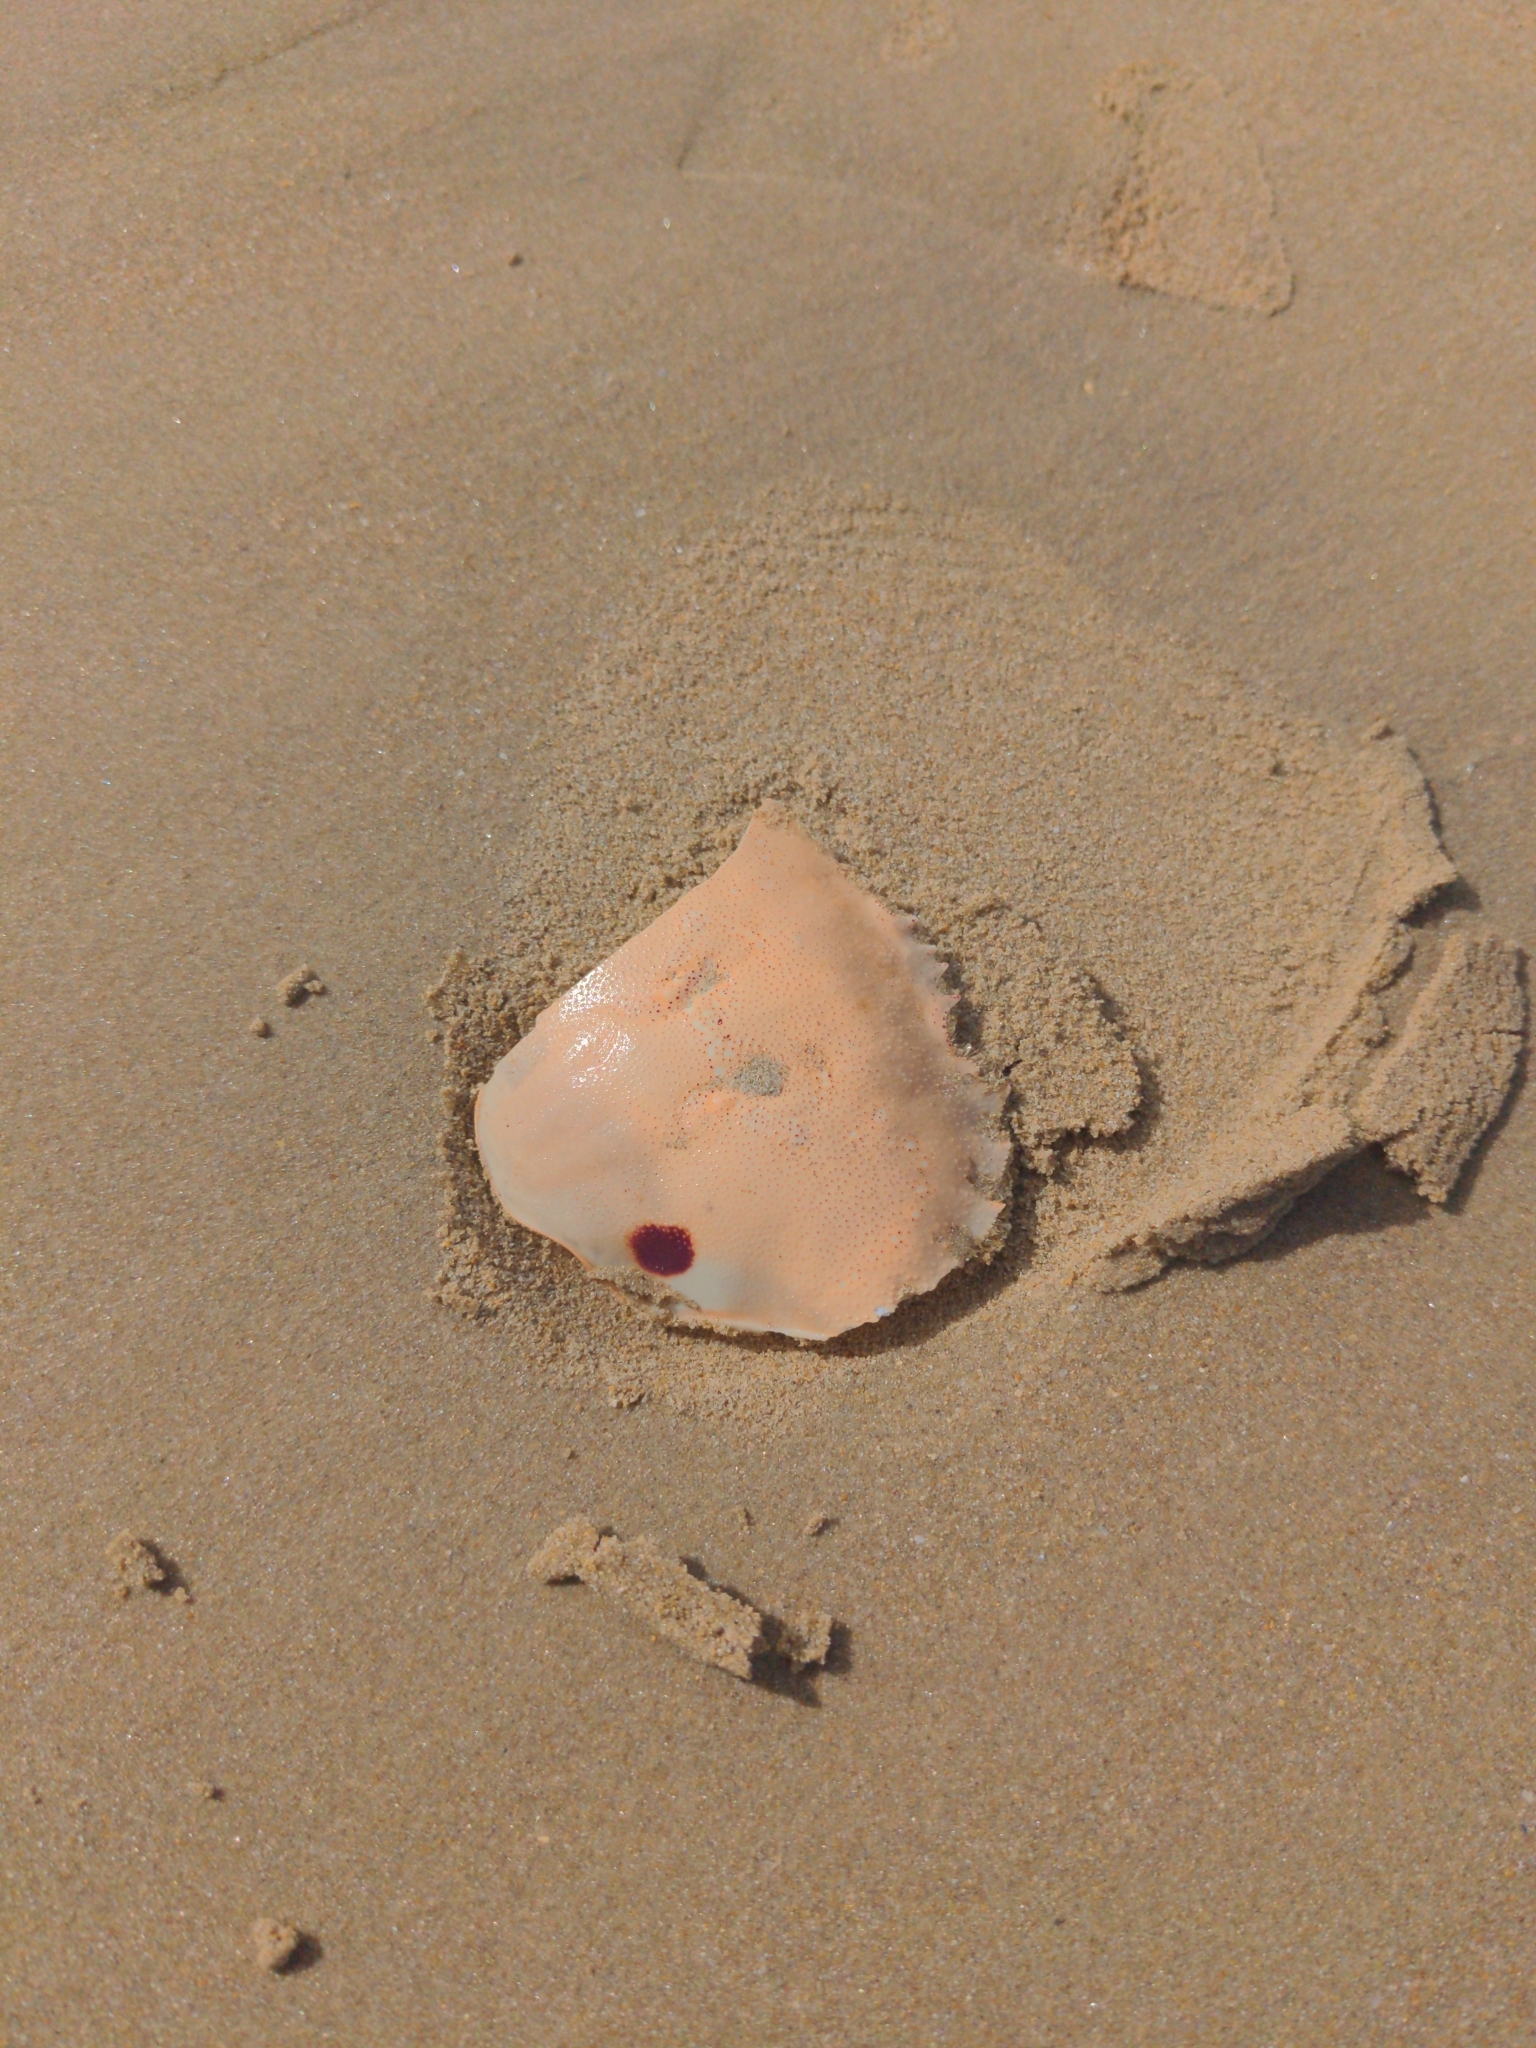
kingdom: Animalia
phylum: Arthropoda
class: Malacostraca
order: Decapoda
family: Ovalipidae
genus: Ovalipes
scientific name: Ovalipes australiensis
